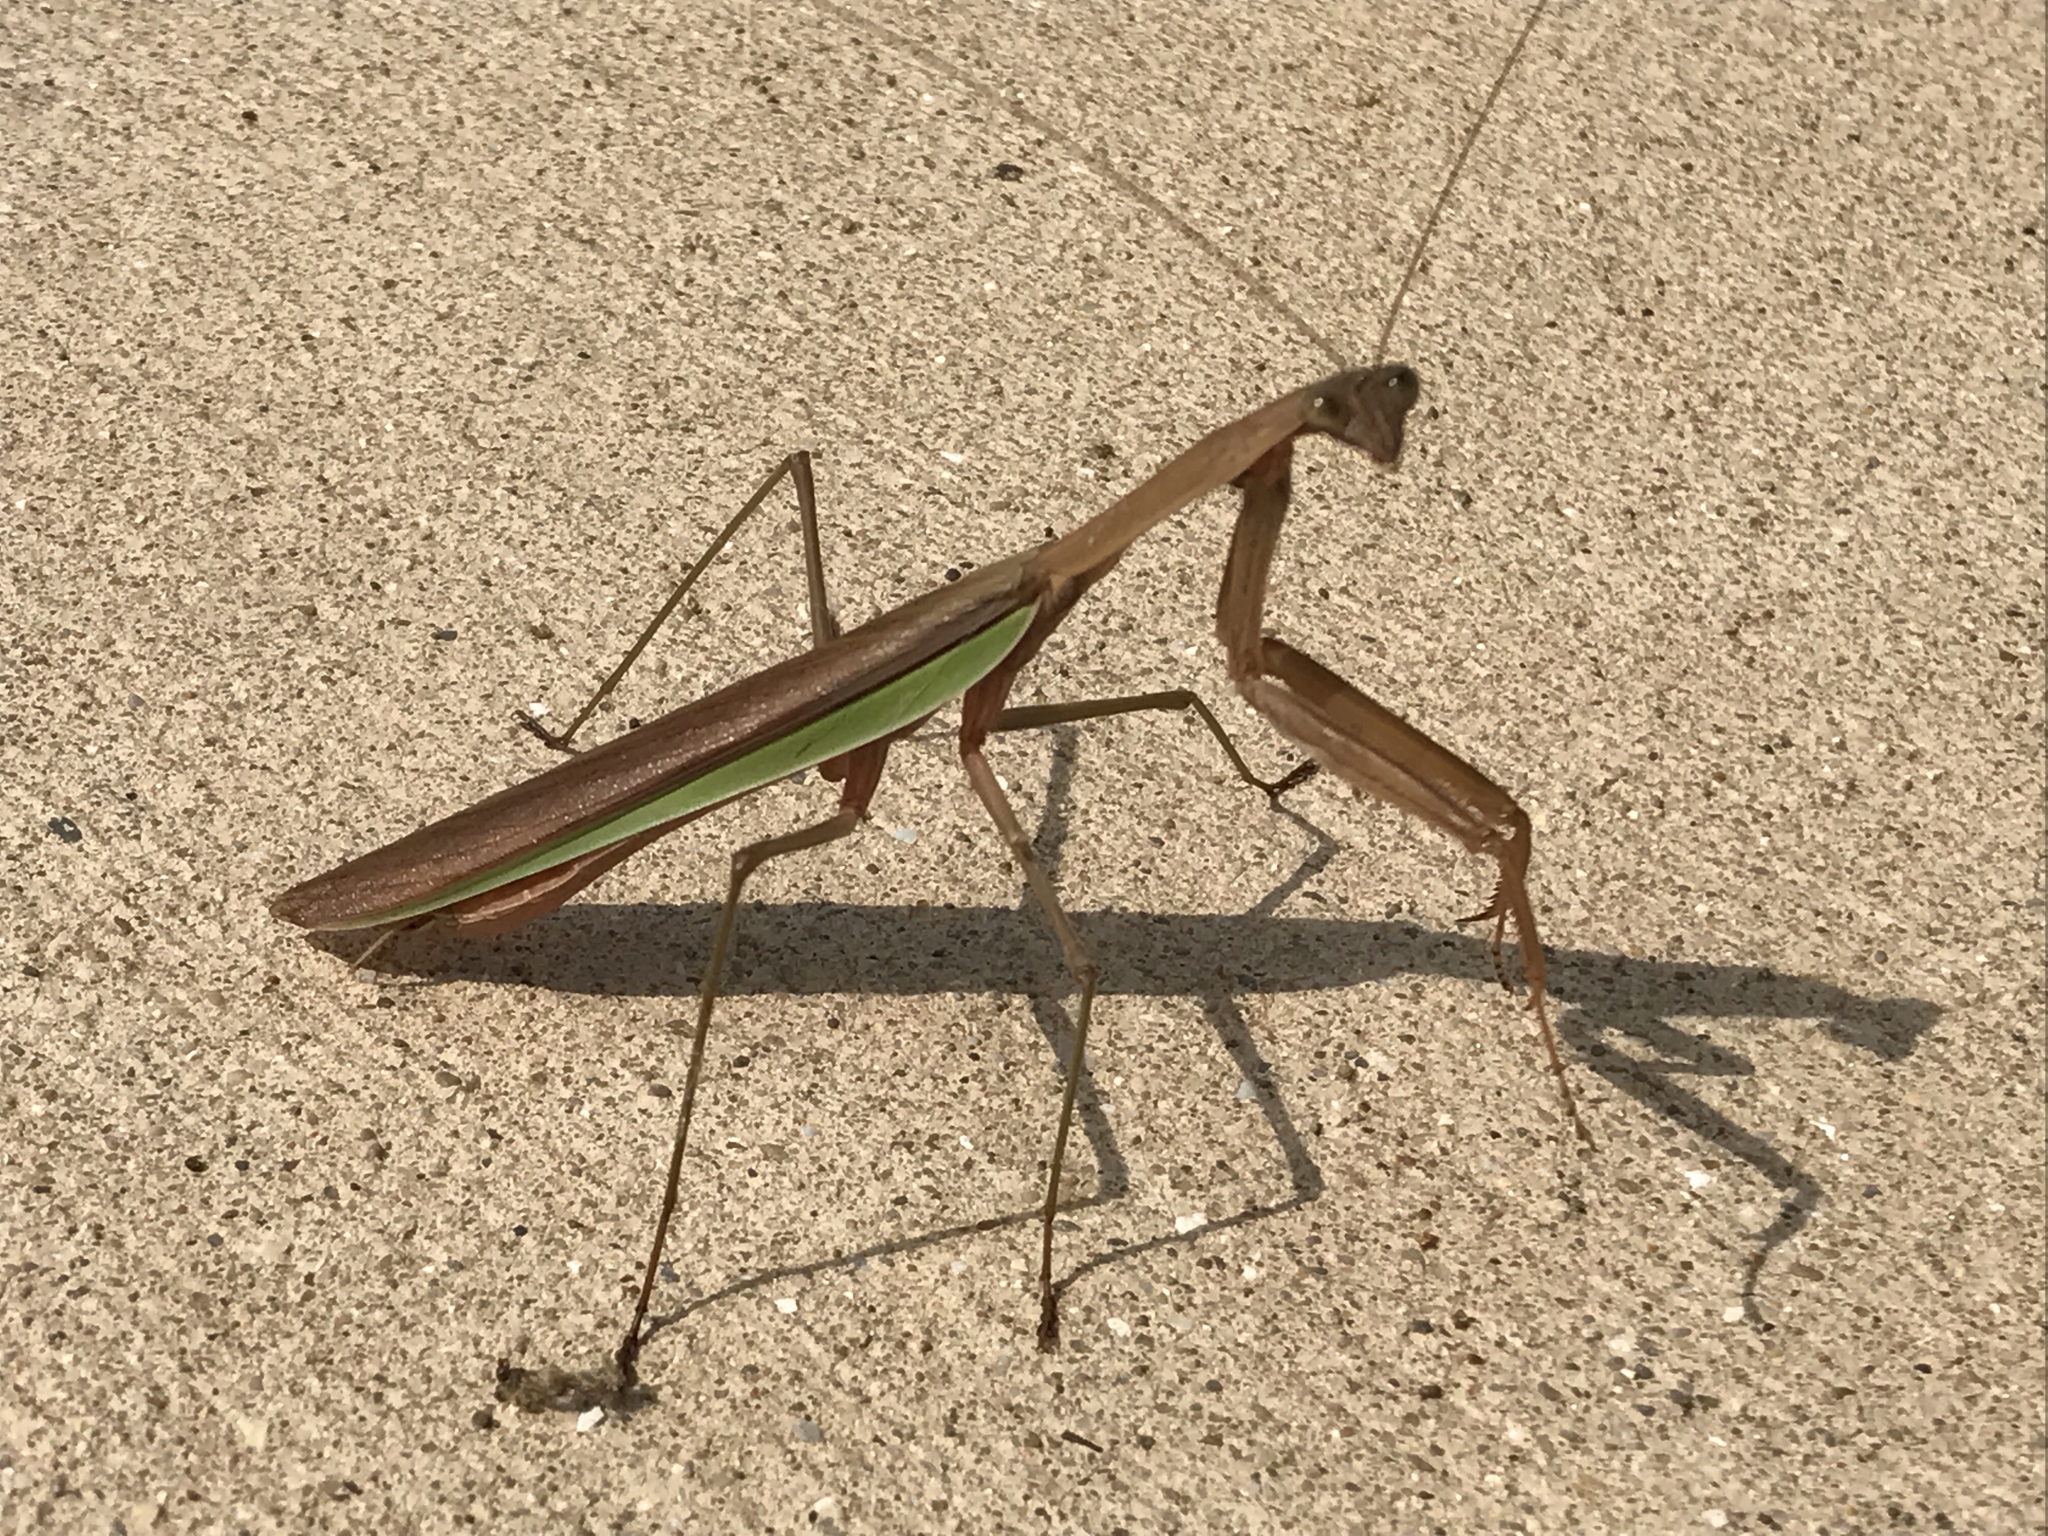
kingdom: Animalia
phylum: Arthropoda
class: Insecta
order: Mantodea
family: Mantidae
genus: Tenodera
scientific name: Tenodera sinensis
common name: Chinese mantis
